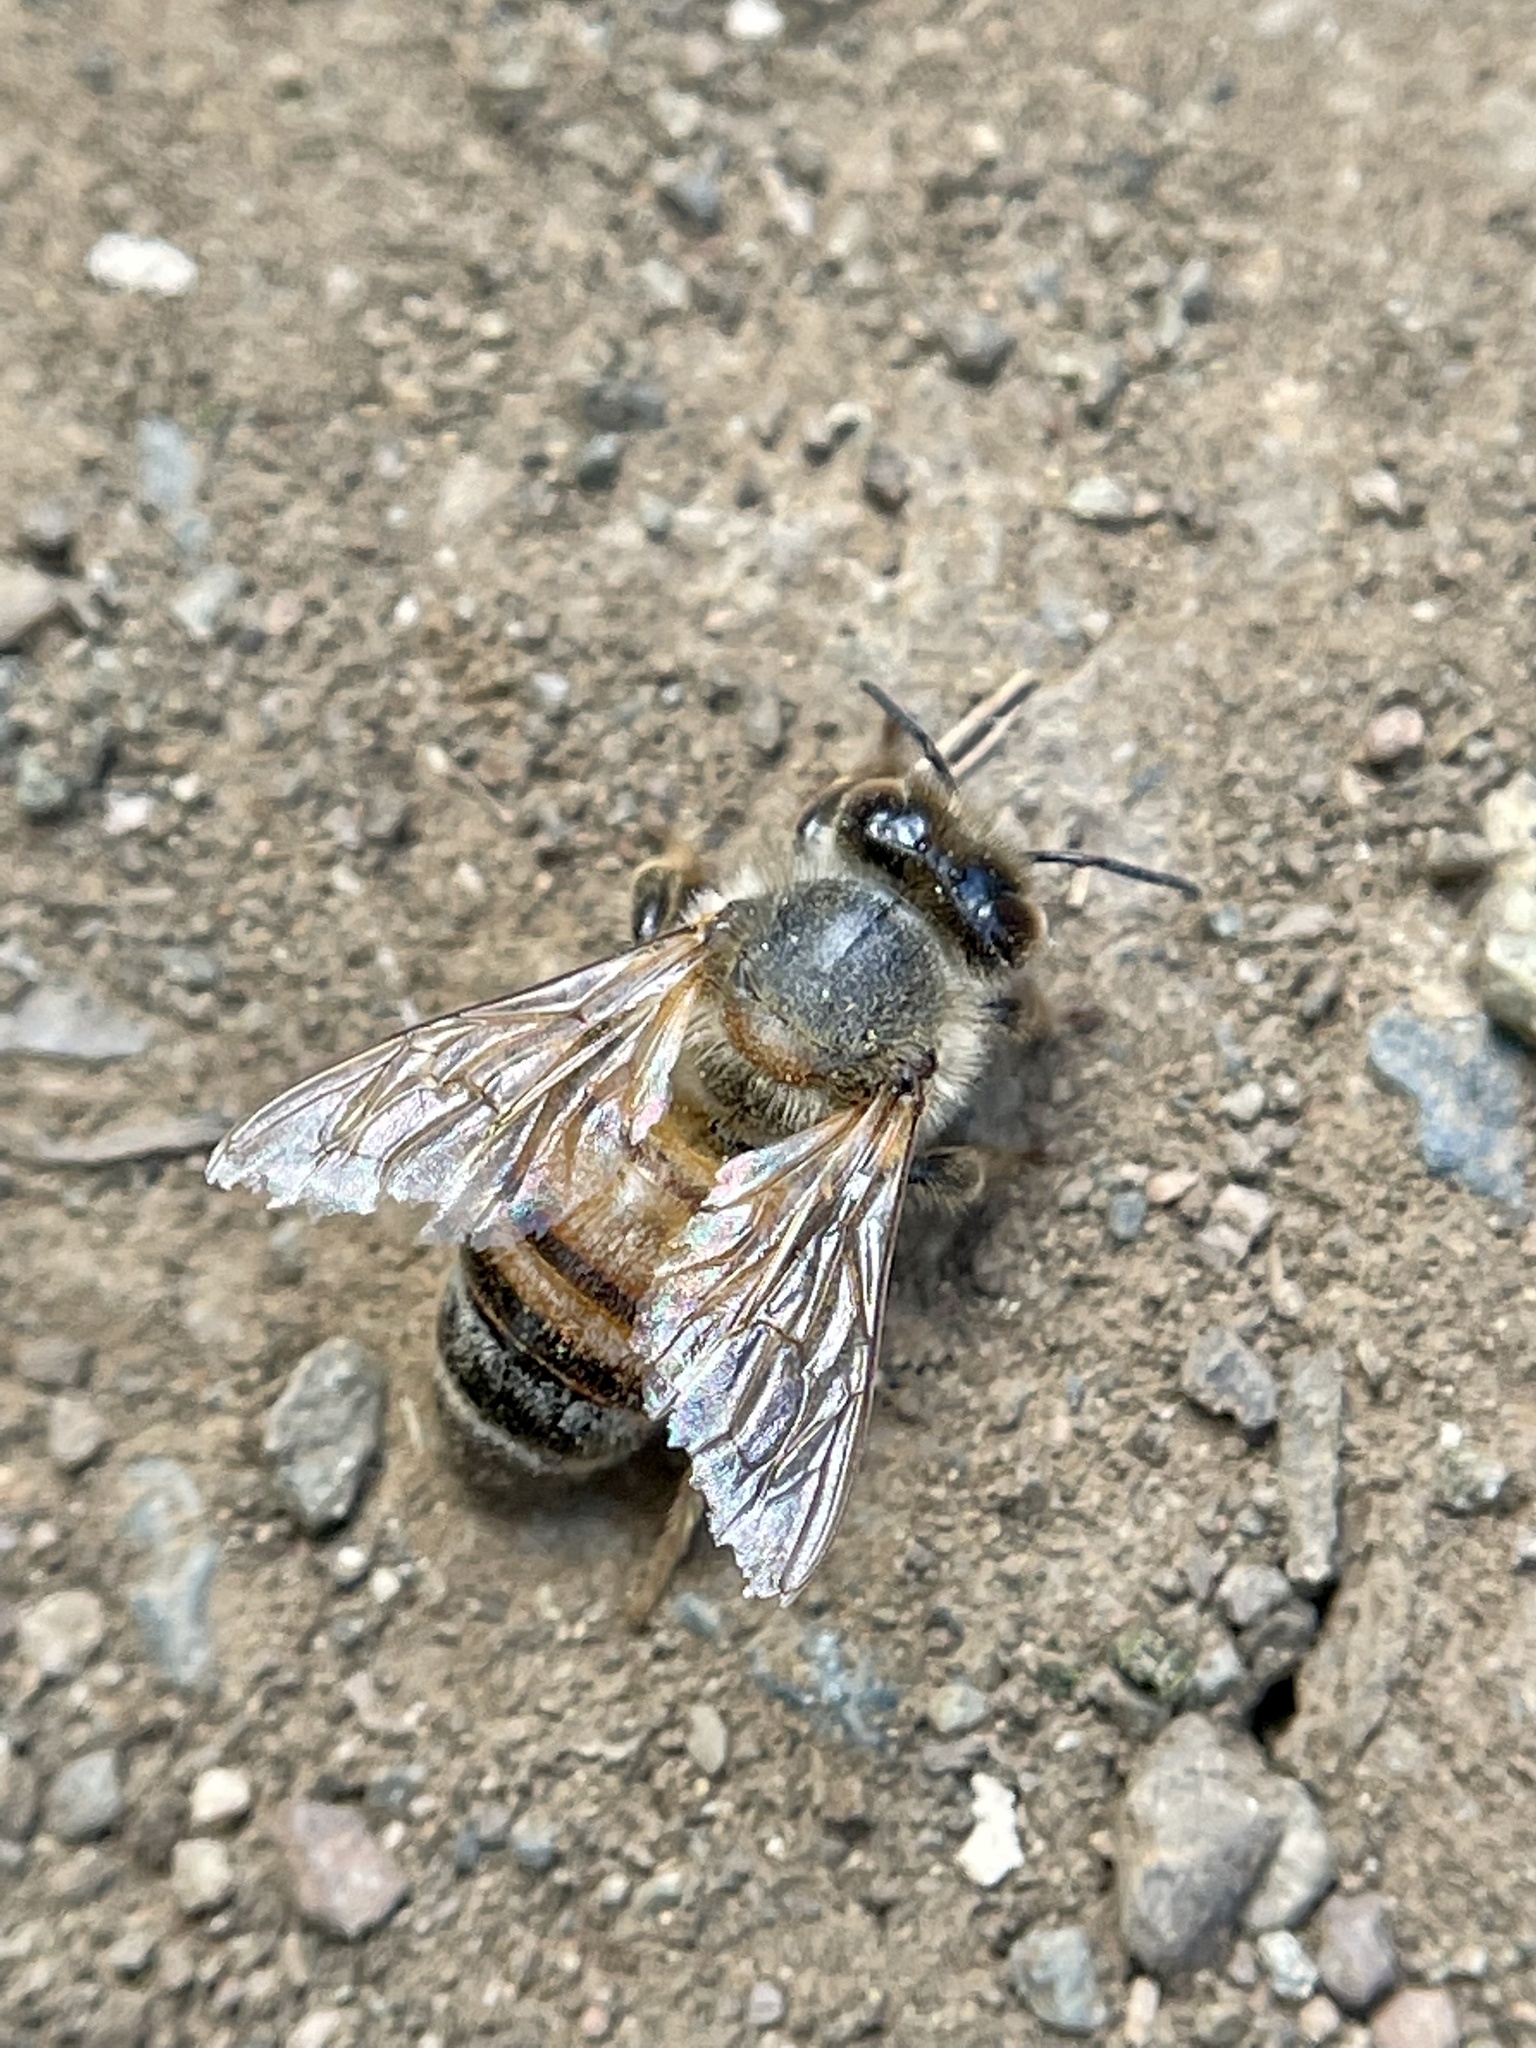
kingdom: Animalia
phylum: Arthropoda
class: Insecta
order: Hymenoptera
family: Apidae
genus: Apis
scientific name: Apis mellifera
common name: Honey bee
